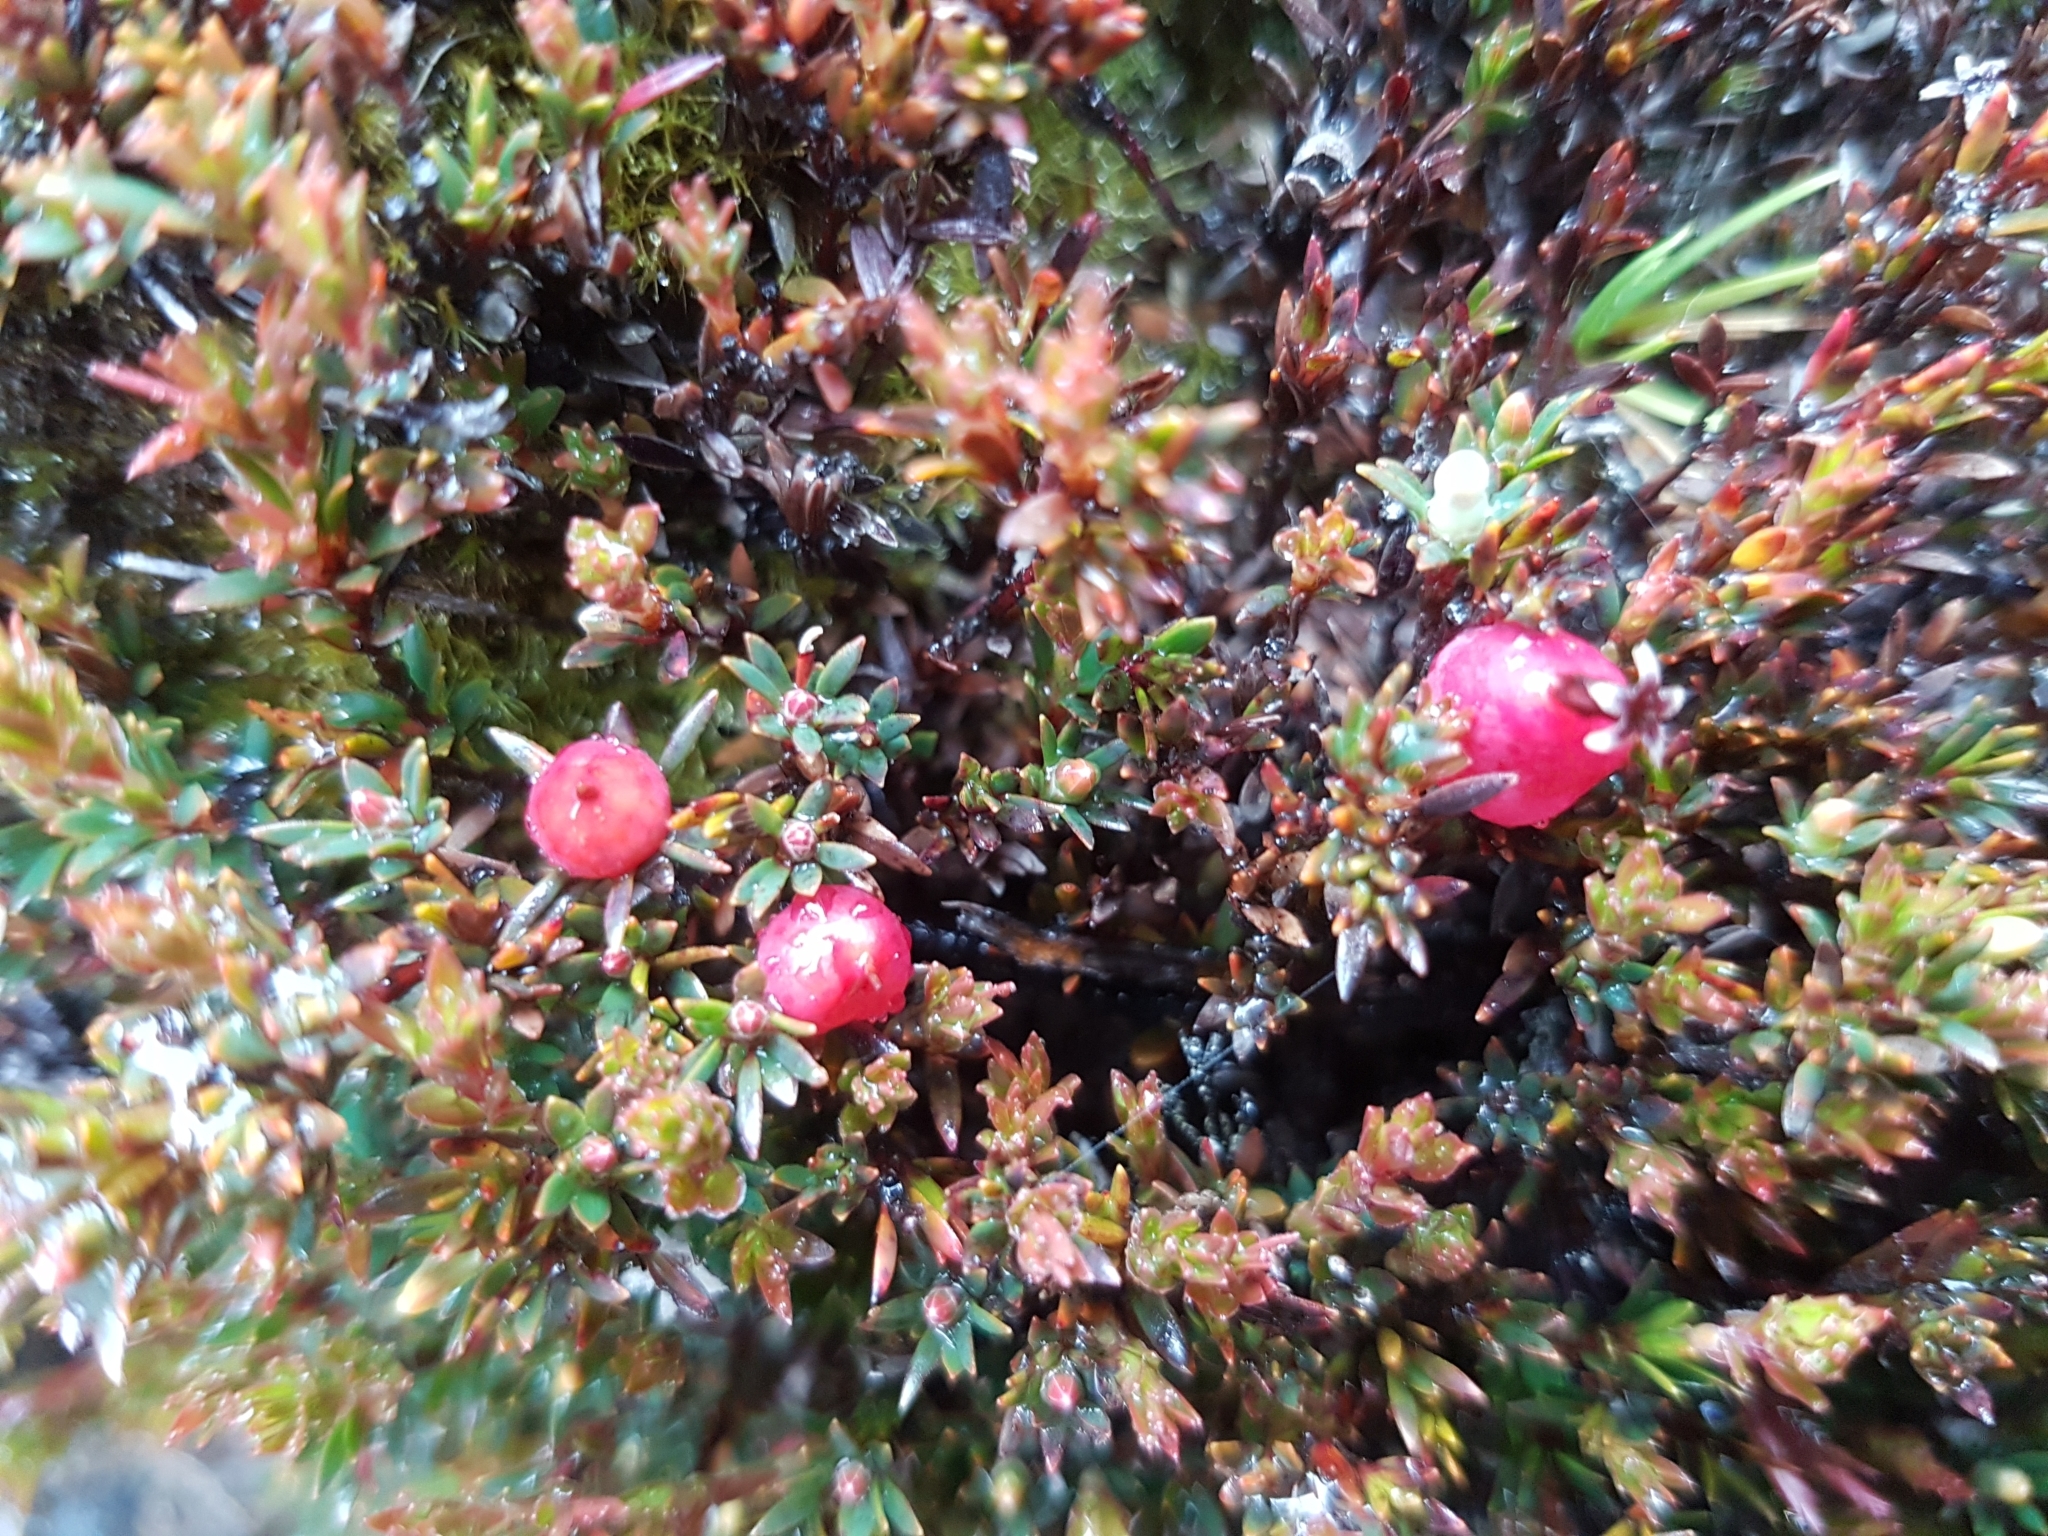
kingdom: Plantae
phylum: Tracheophyta
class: Magnoliopsida
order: Ericales
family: Ericaceae
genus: Pentachondra
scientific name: Pentachondra pumila
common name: Carpet-heath
